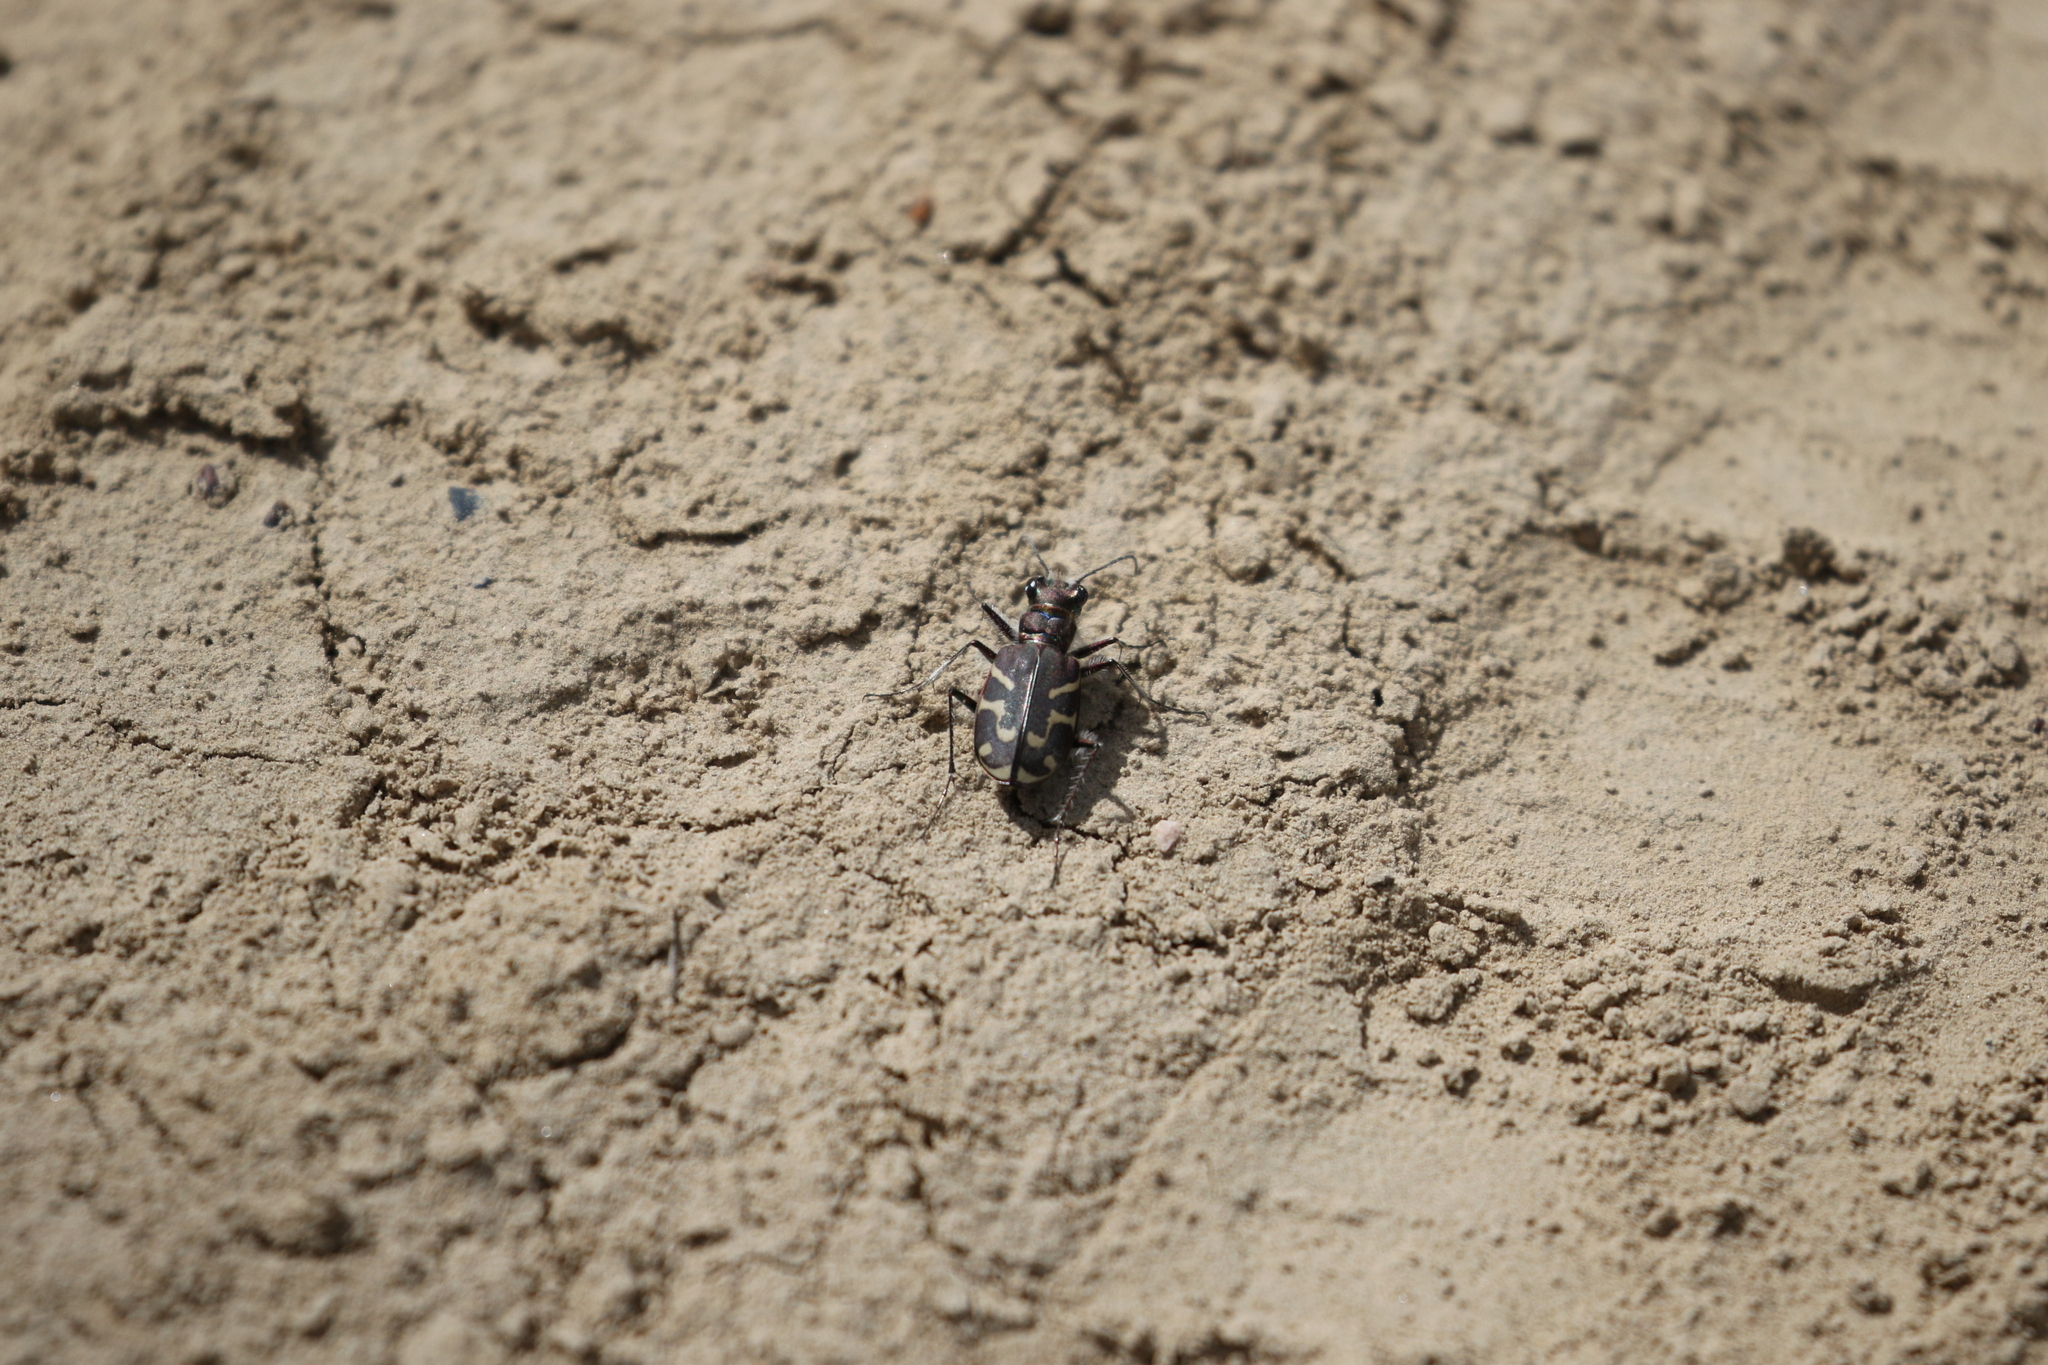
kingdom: Animalia
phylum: Arthropoda
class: Insecta
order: Coleoptera
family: Carabidae
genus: Cicindela
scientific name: Cicindela tranquebarica
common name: Oblique-lined tiger beetle
